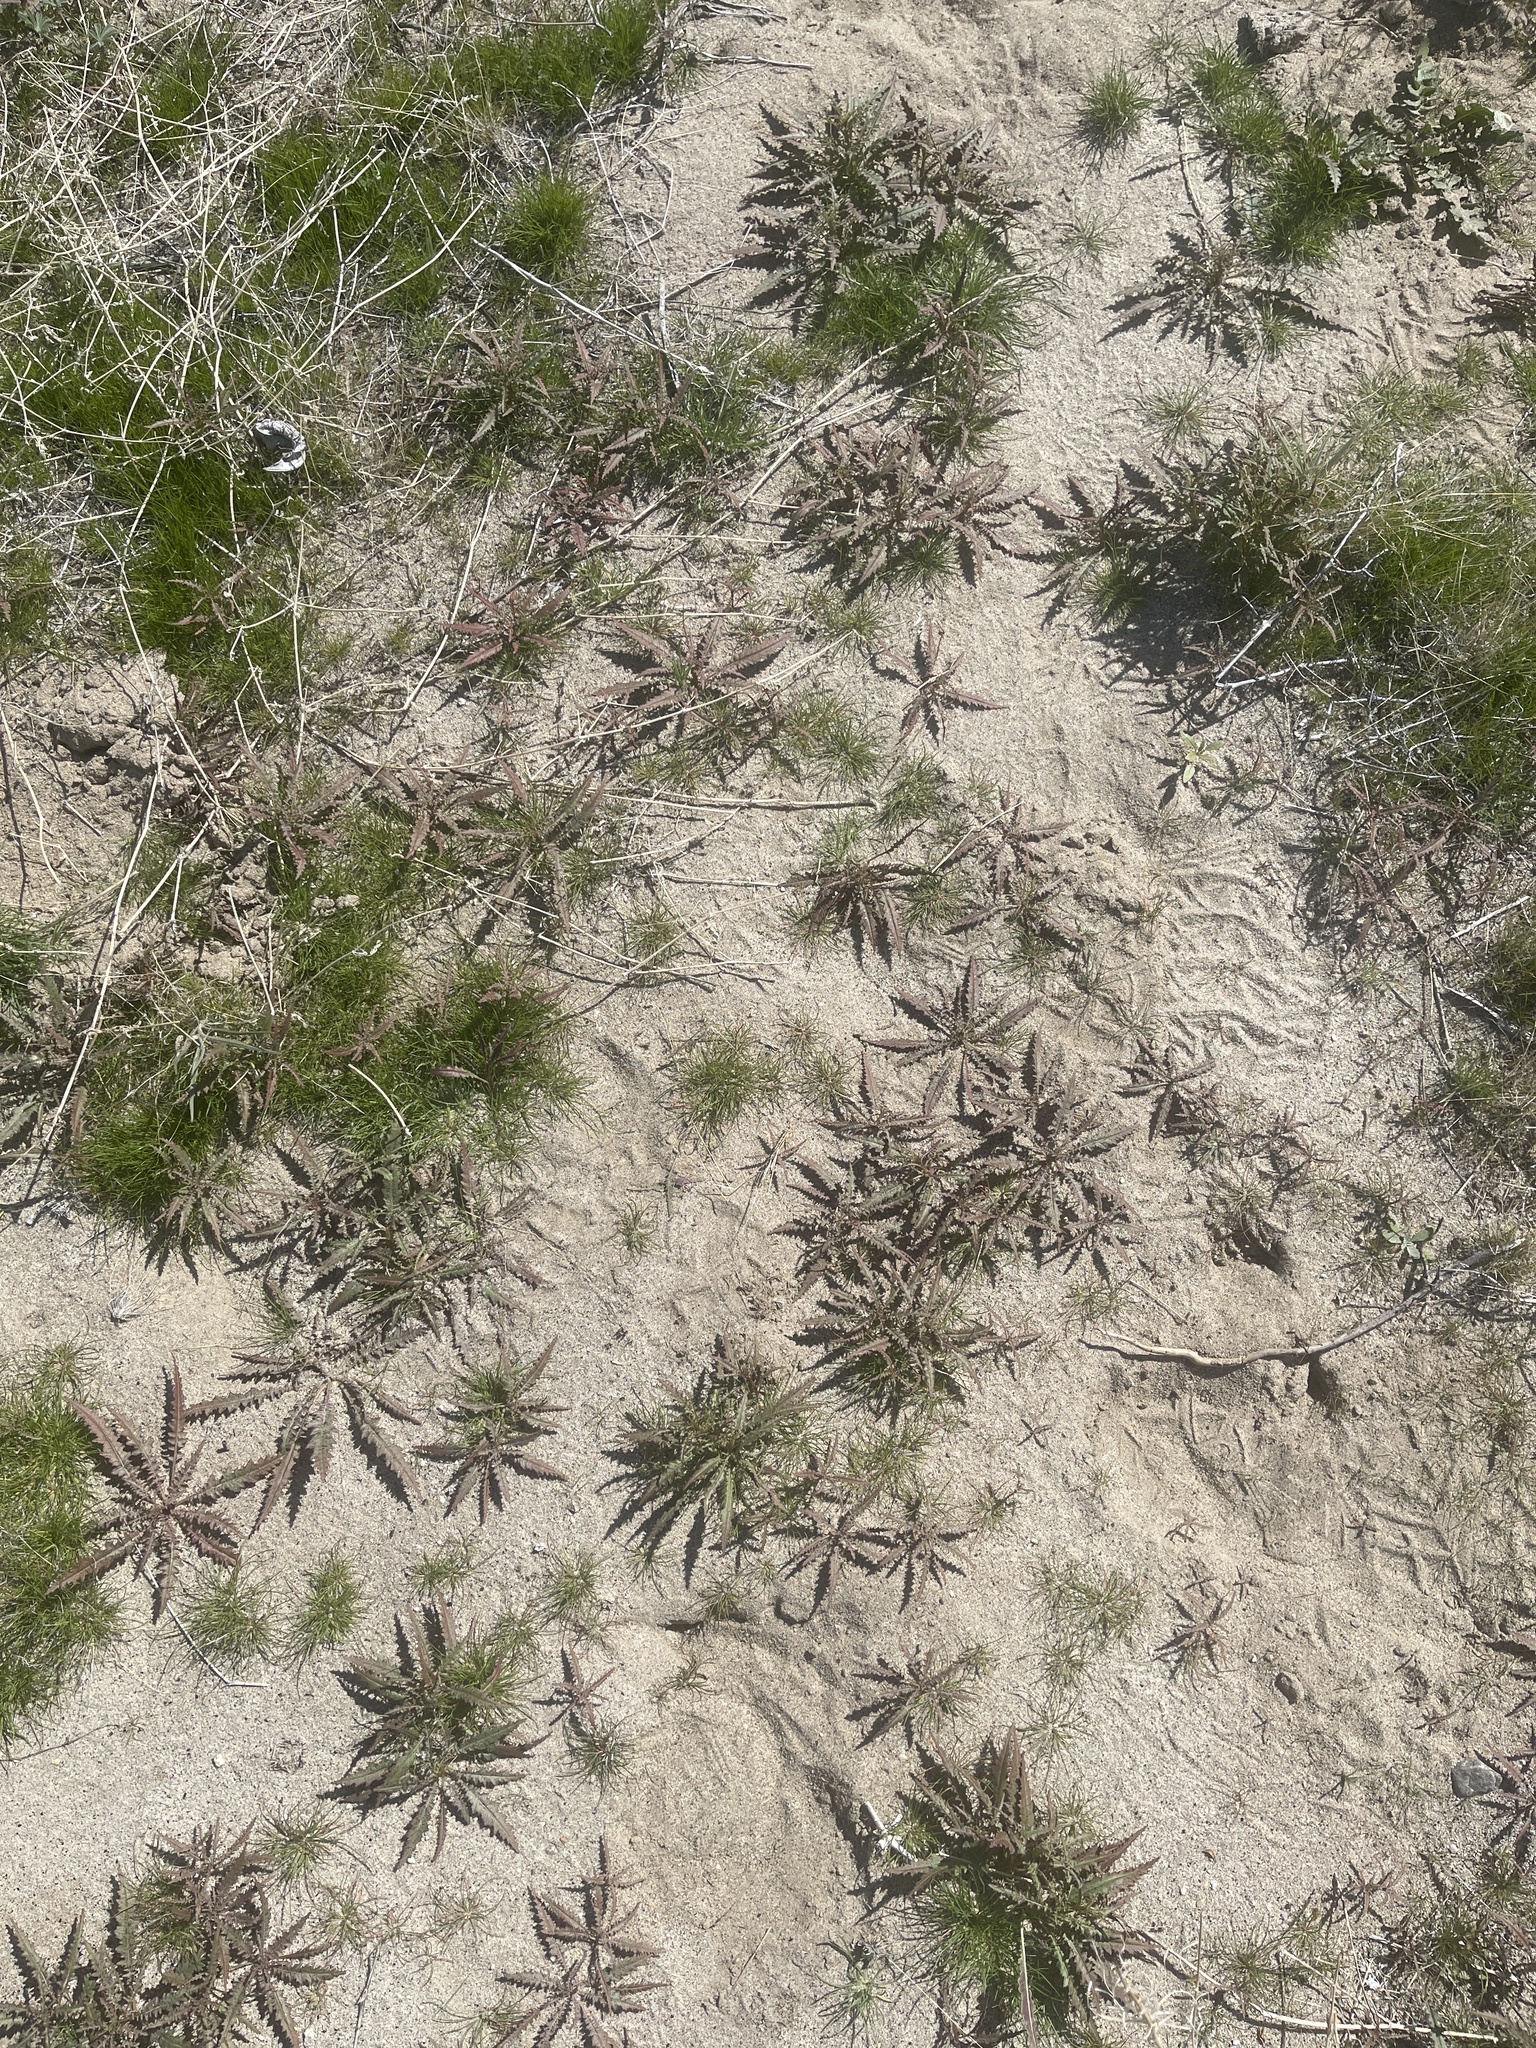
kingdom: Plantae
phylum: Tracheophyta
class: Magnoliopsida
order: Myrtales
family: Onagraceae
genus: Eulobus
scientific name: Eulobus californicus
